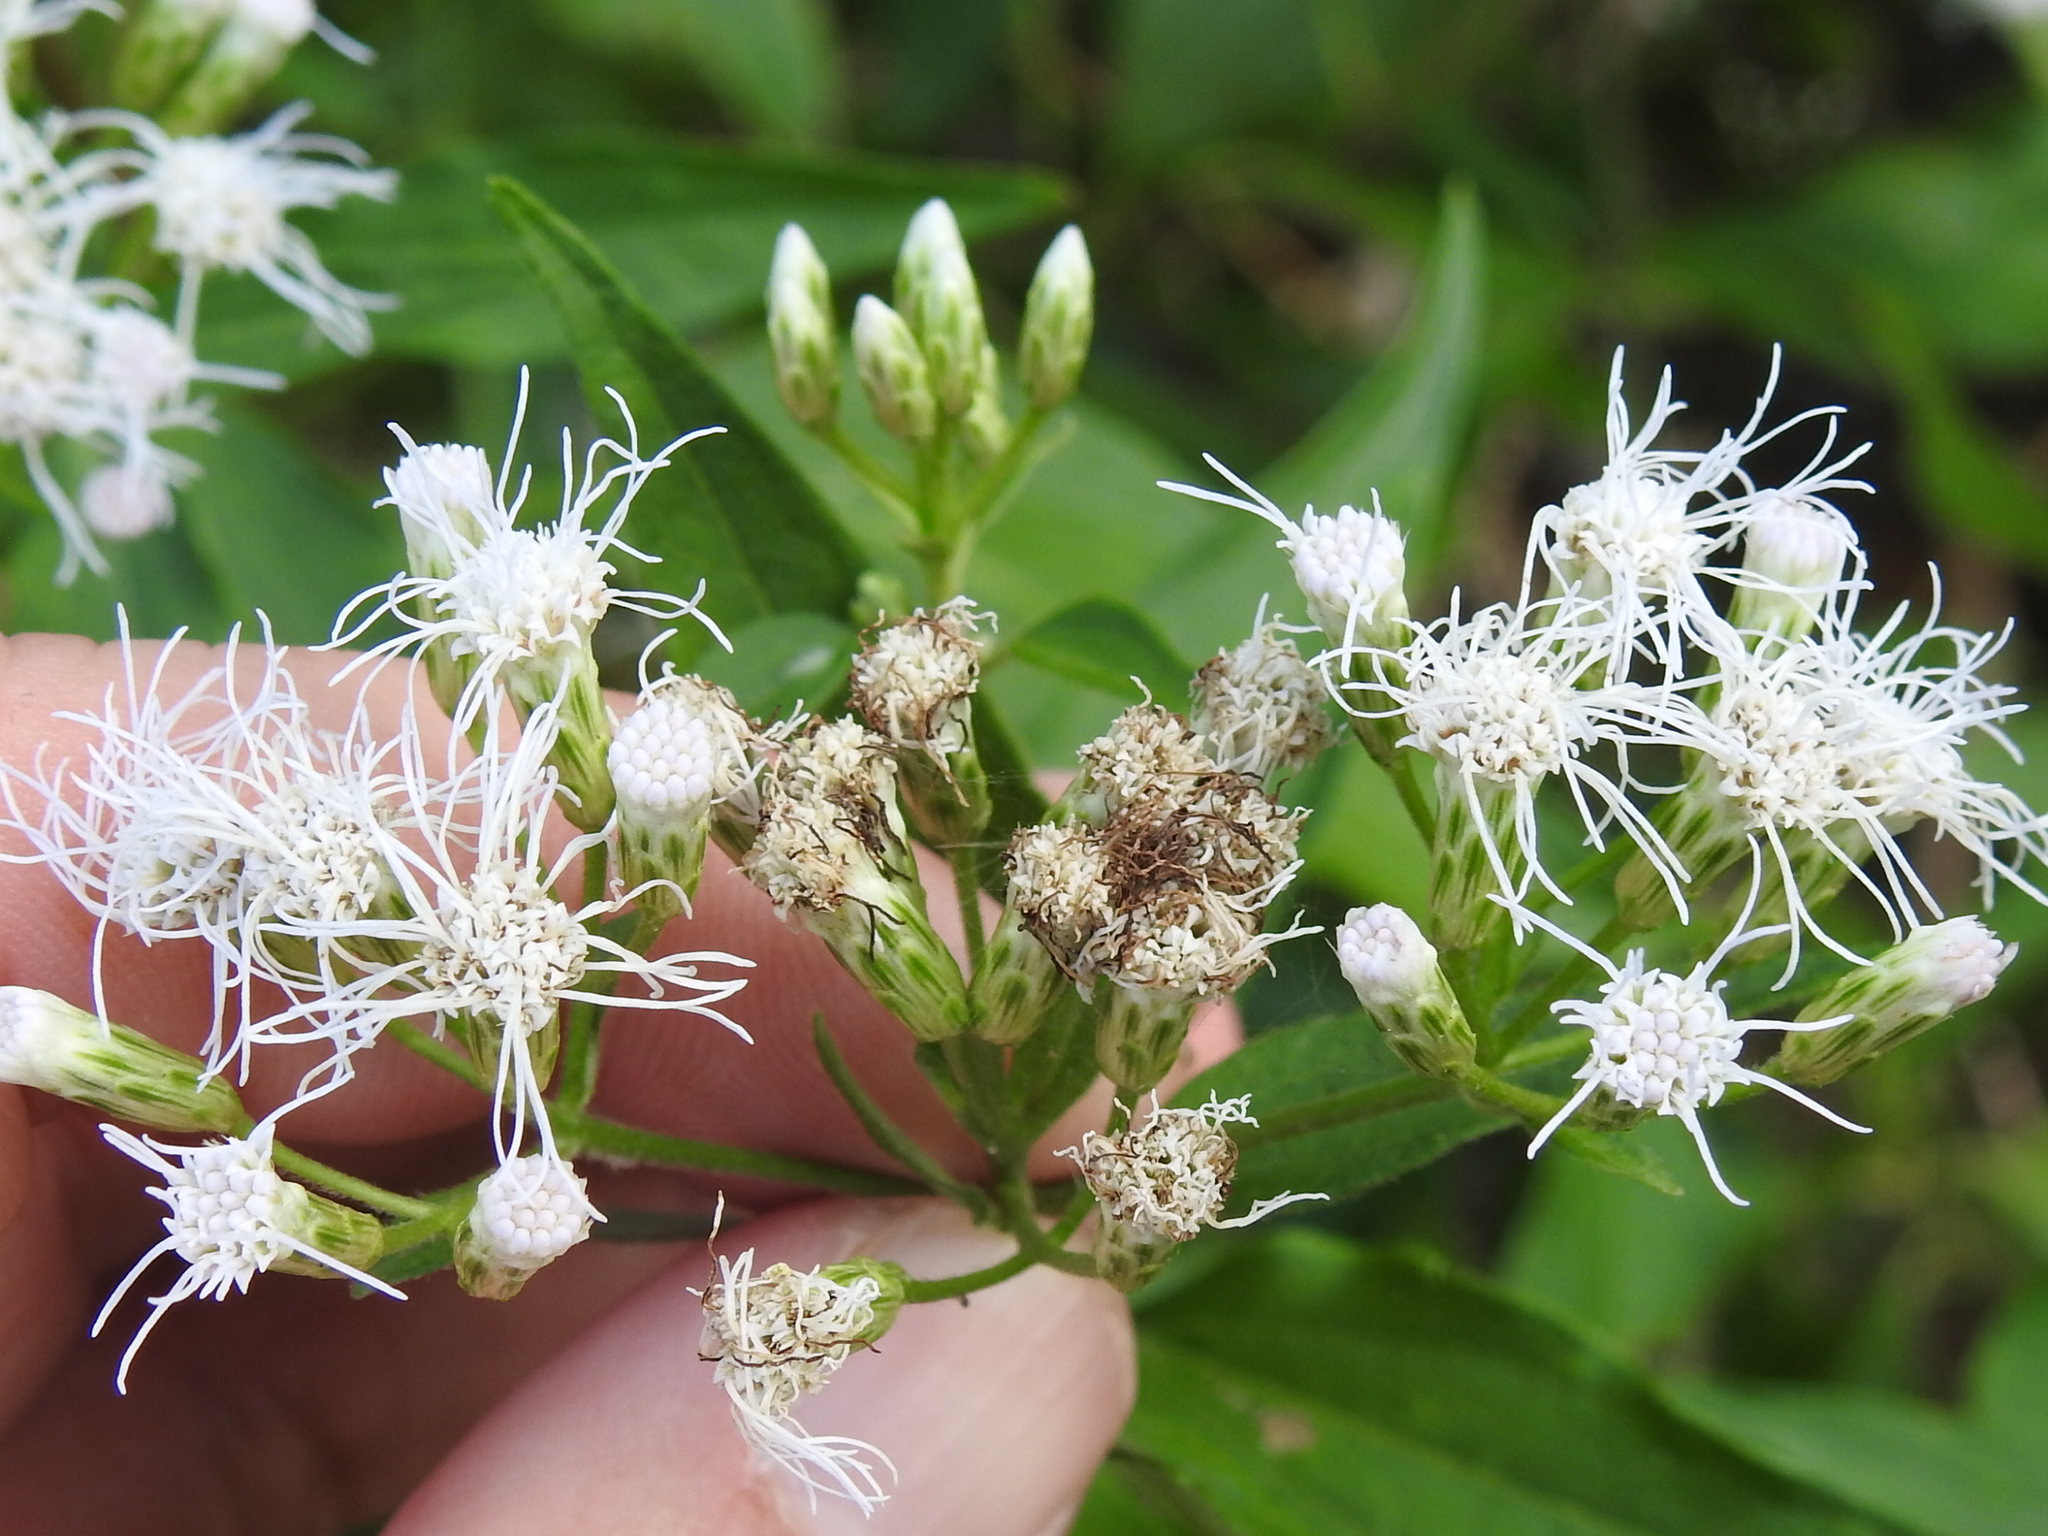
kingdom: Plantae
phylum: Tracheophyta
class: Magnoliopsida
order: Asterales
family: Asteraceae
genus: Chromolaena
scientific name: Chromolaena odorata
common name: Siamweed
